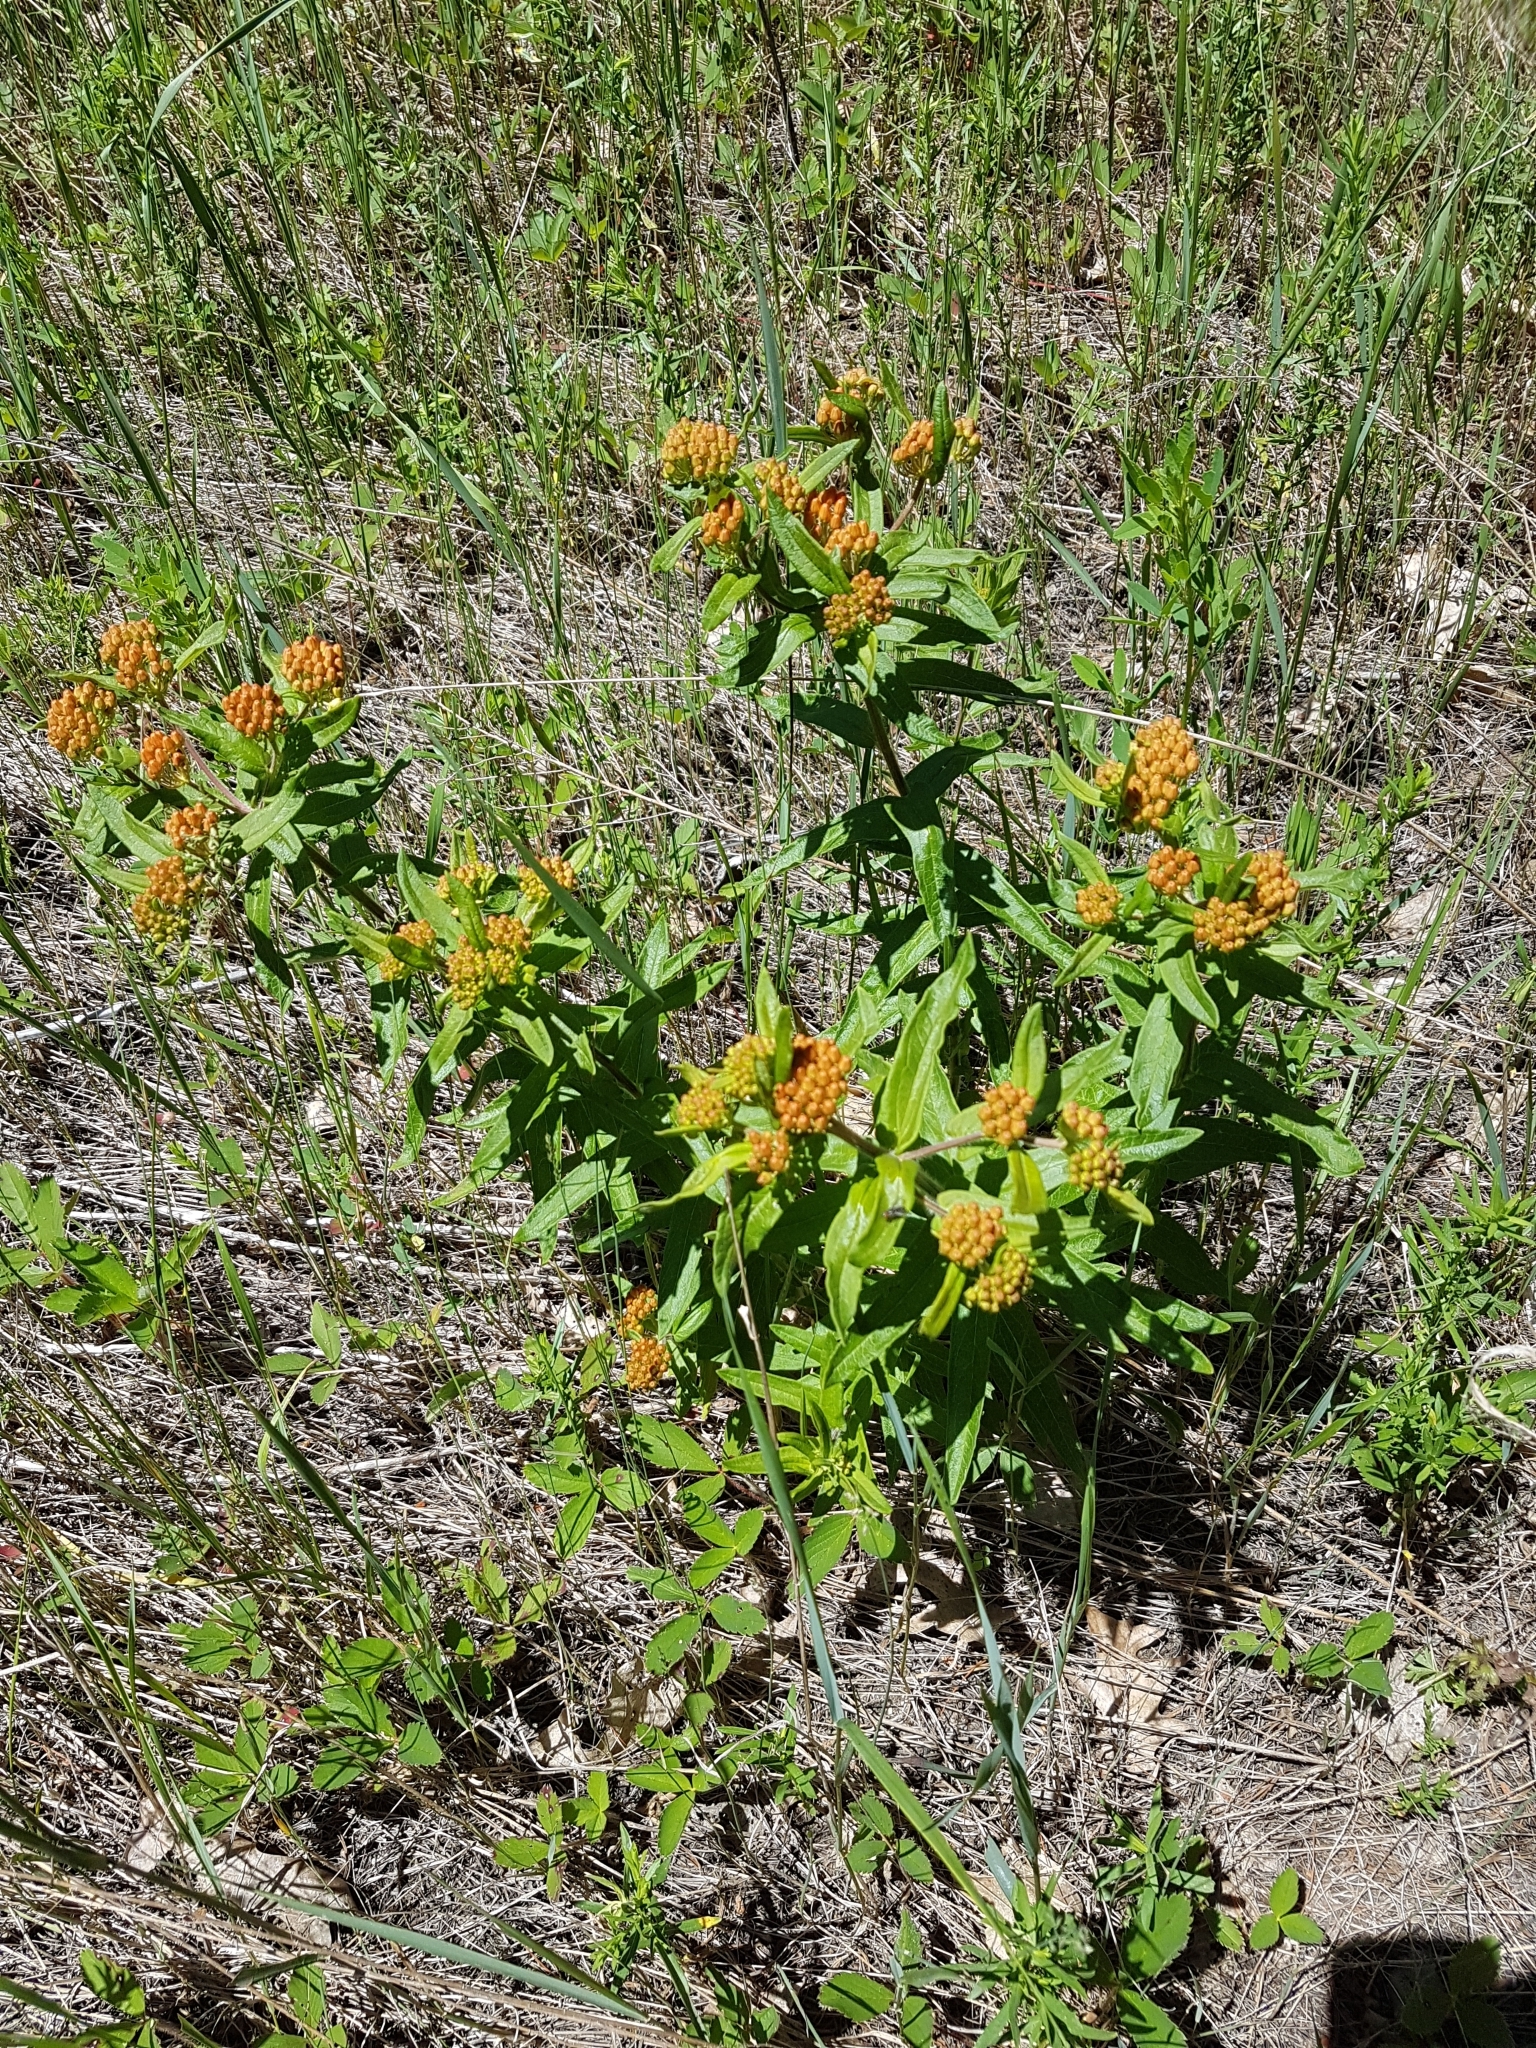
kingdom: Plantae
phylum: Tracheophyta
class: Magnoliopsida
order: Gentianales
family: Apocynaceae
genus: Asclepias
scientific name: Asclepias tuberosa
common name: Butterfly milkweed
